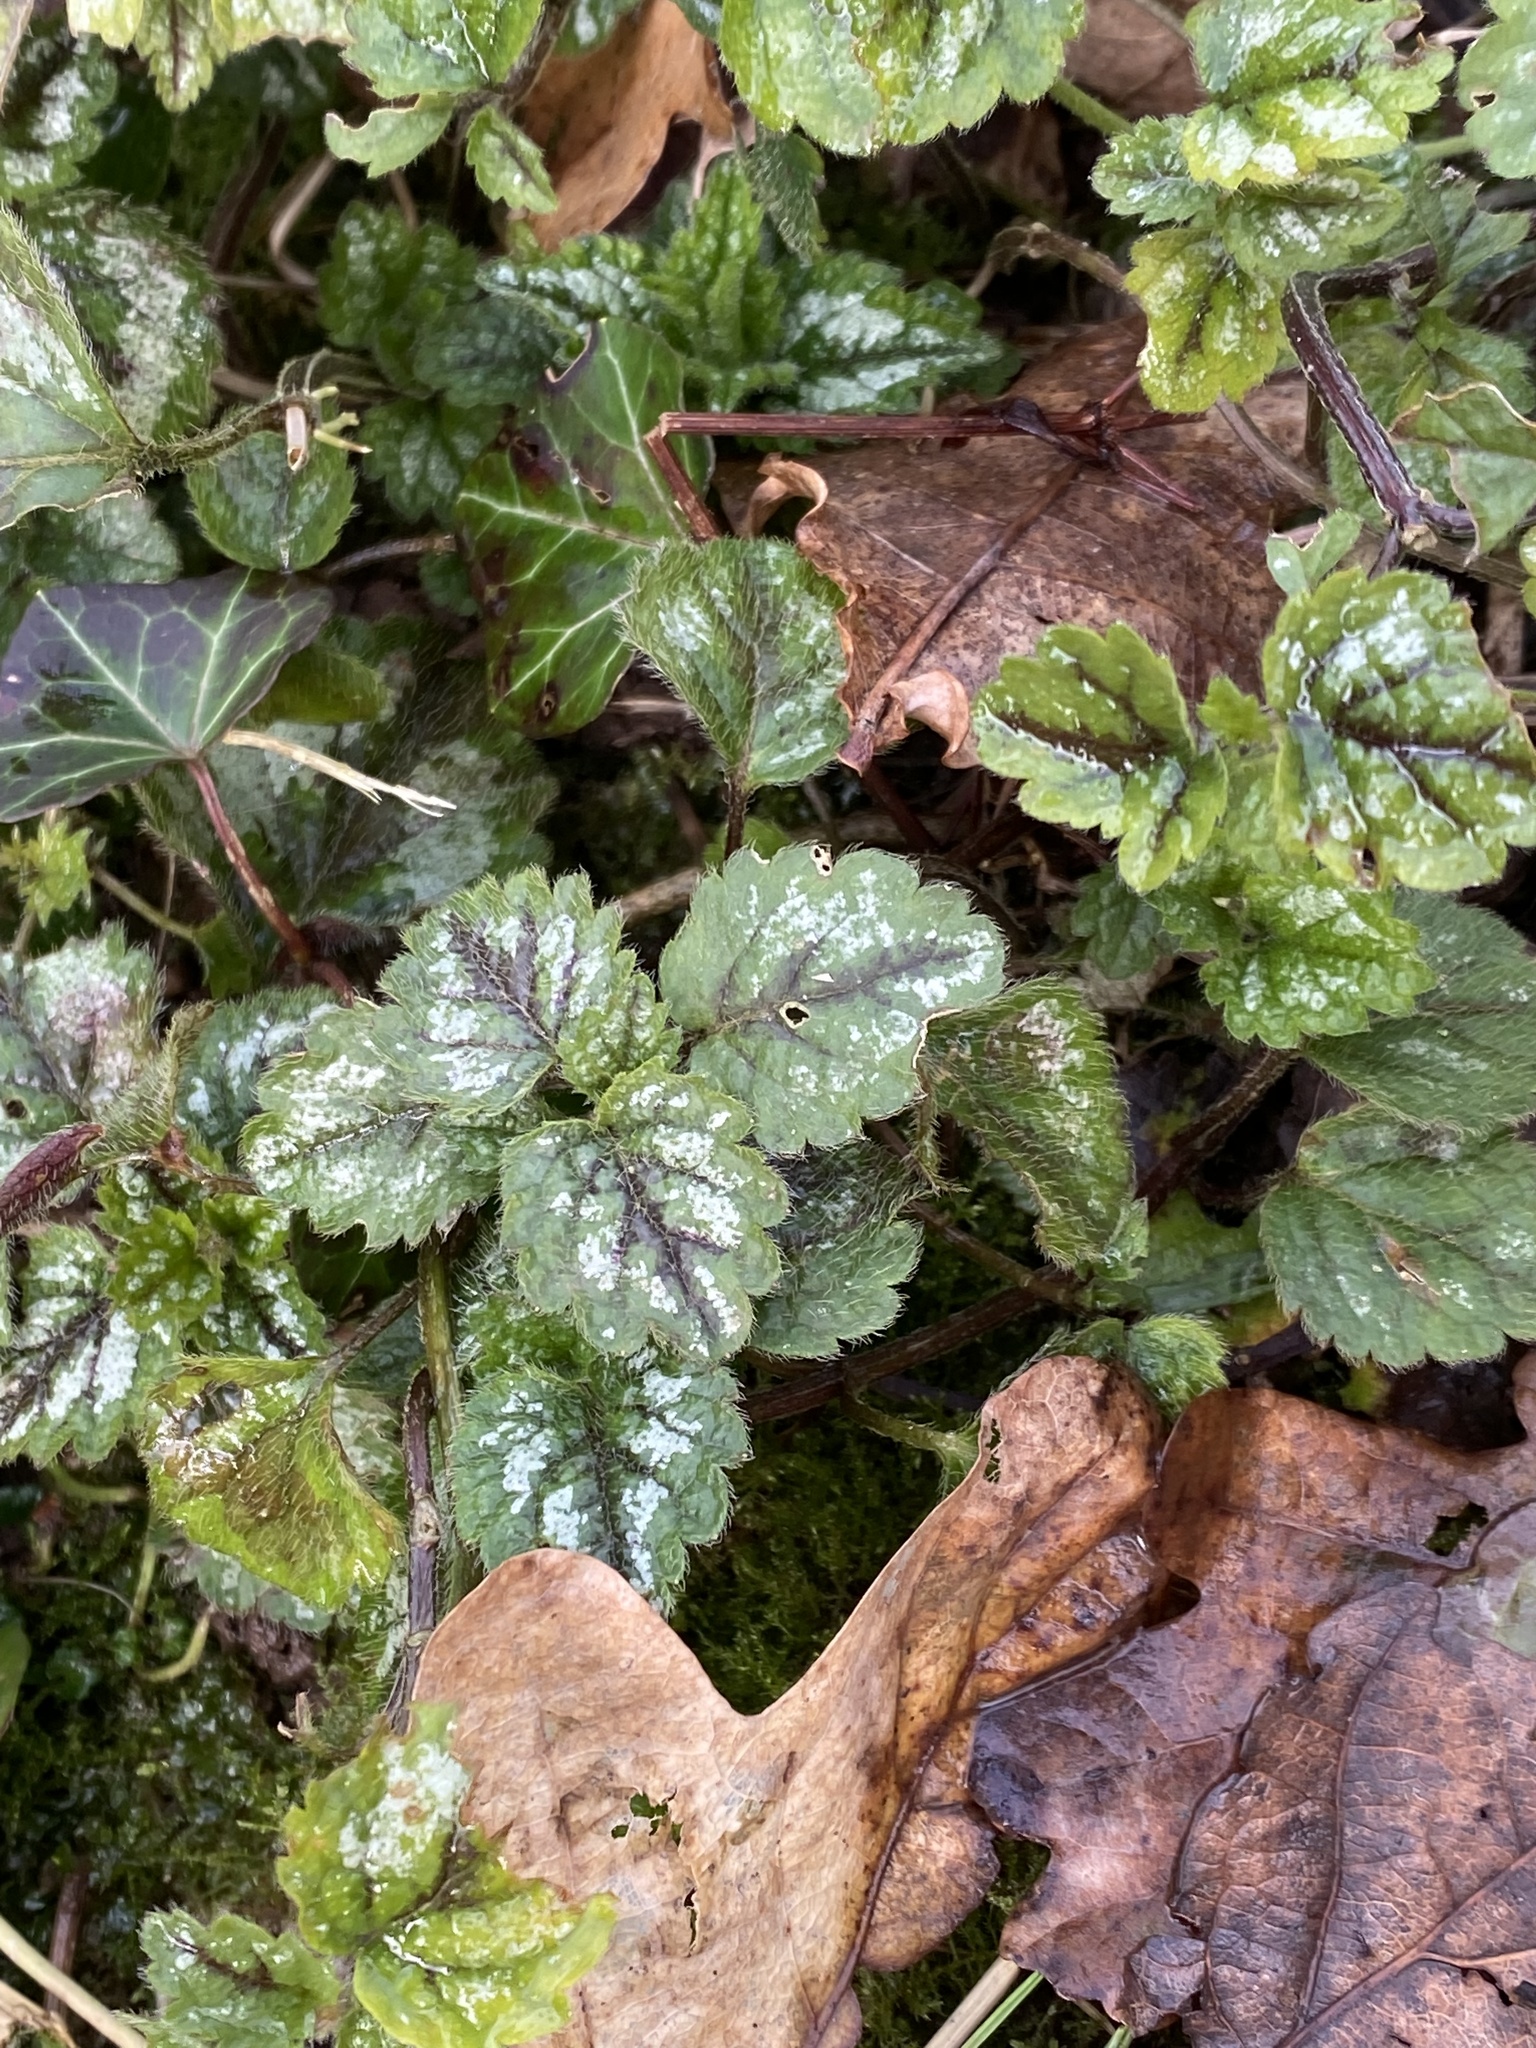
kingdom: Plantae
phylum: Tracheophyta
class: Magnoliopsida
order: Lamiales
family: Lamiaceae
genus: Lamium
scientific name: Lamium galeobdolon
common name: Yellow archangel
